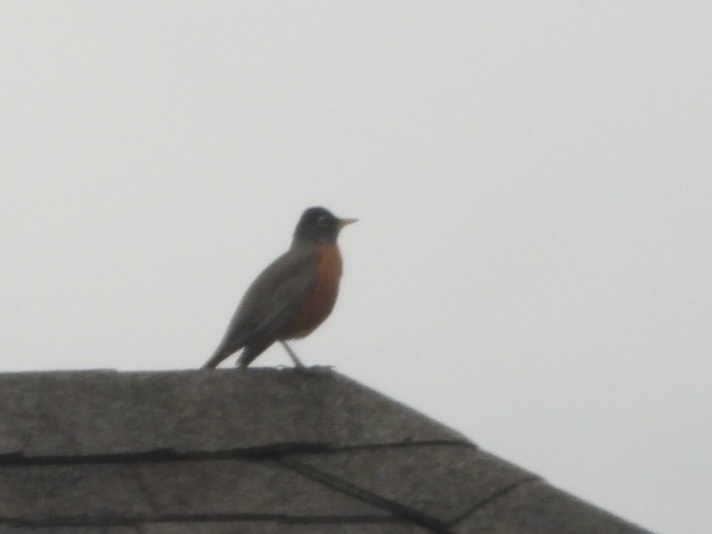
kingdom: Animalia
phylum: Chordata
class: Aves
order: Passeriformes
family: Turdidae
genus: Turdus
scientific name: Turdus migratorius
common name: American robin
